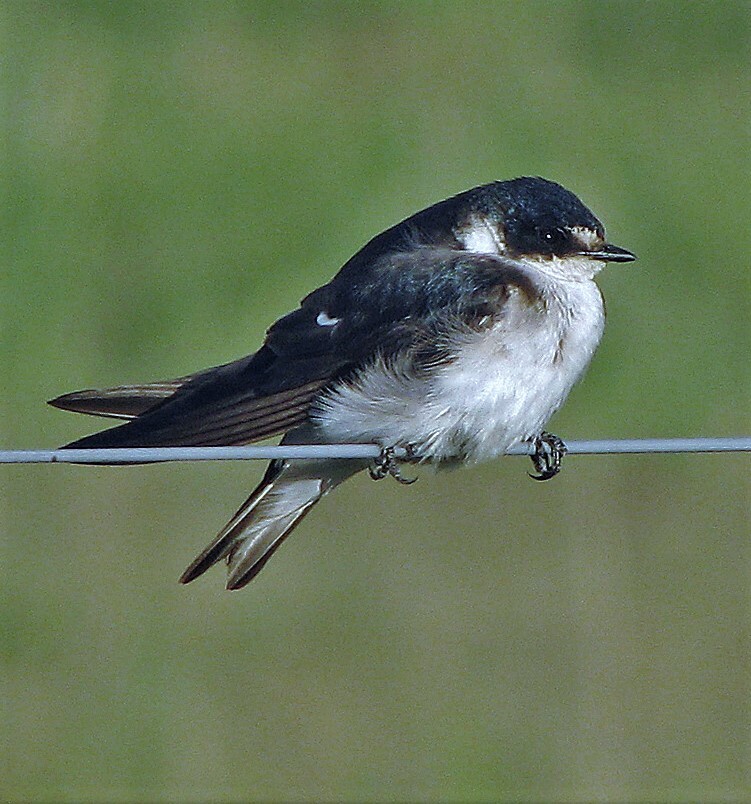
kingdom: Animalia
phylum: Chordata
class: Aves
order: Passeriformes
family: Hirundinidae
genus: Tachycineta
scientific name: Tachycineta leucorrhoa
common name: White-rumped swallow
